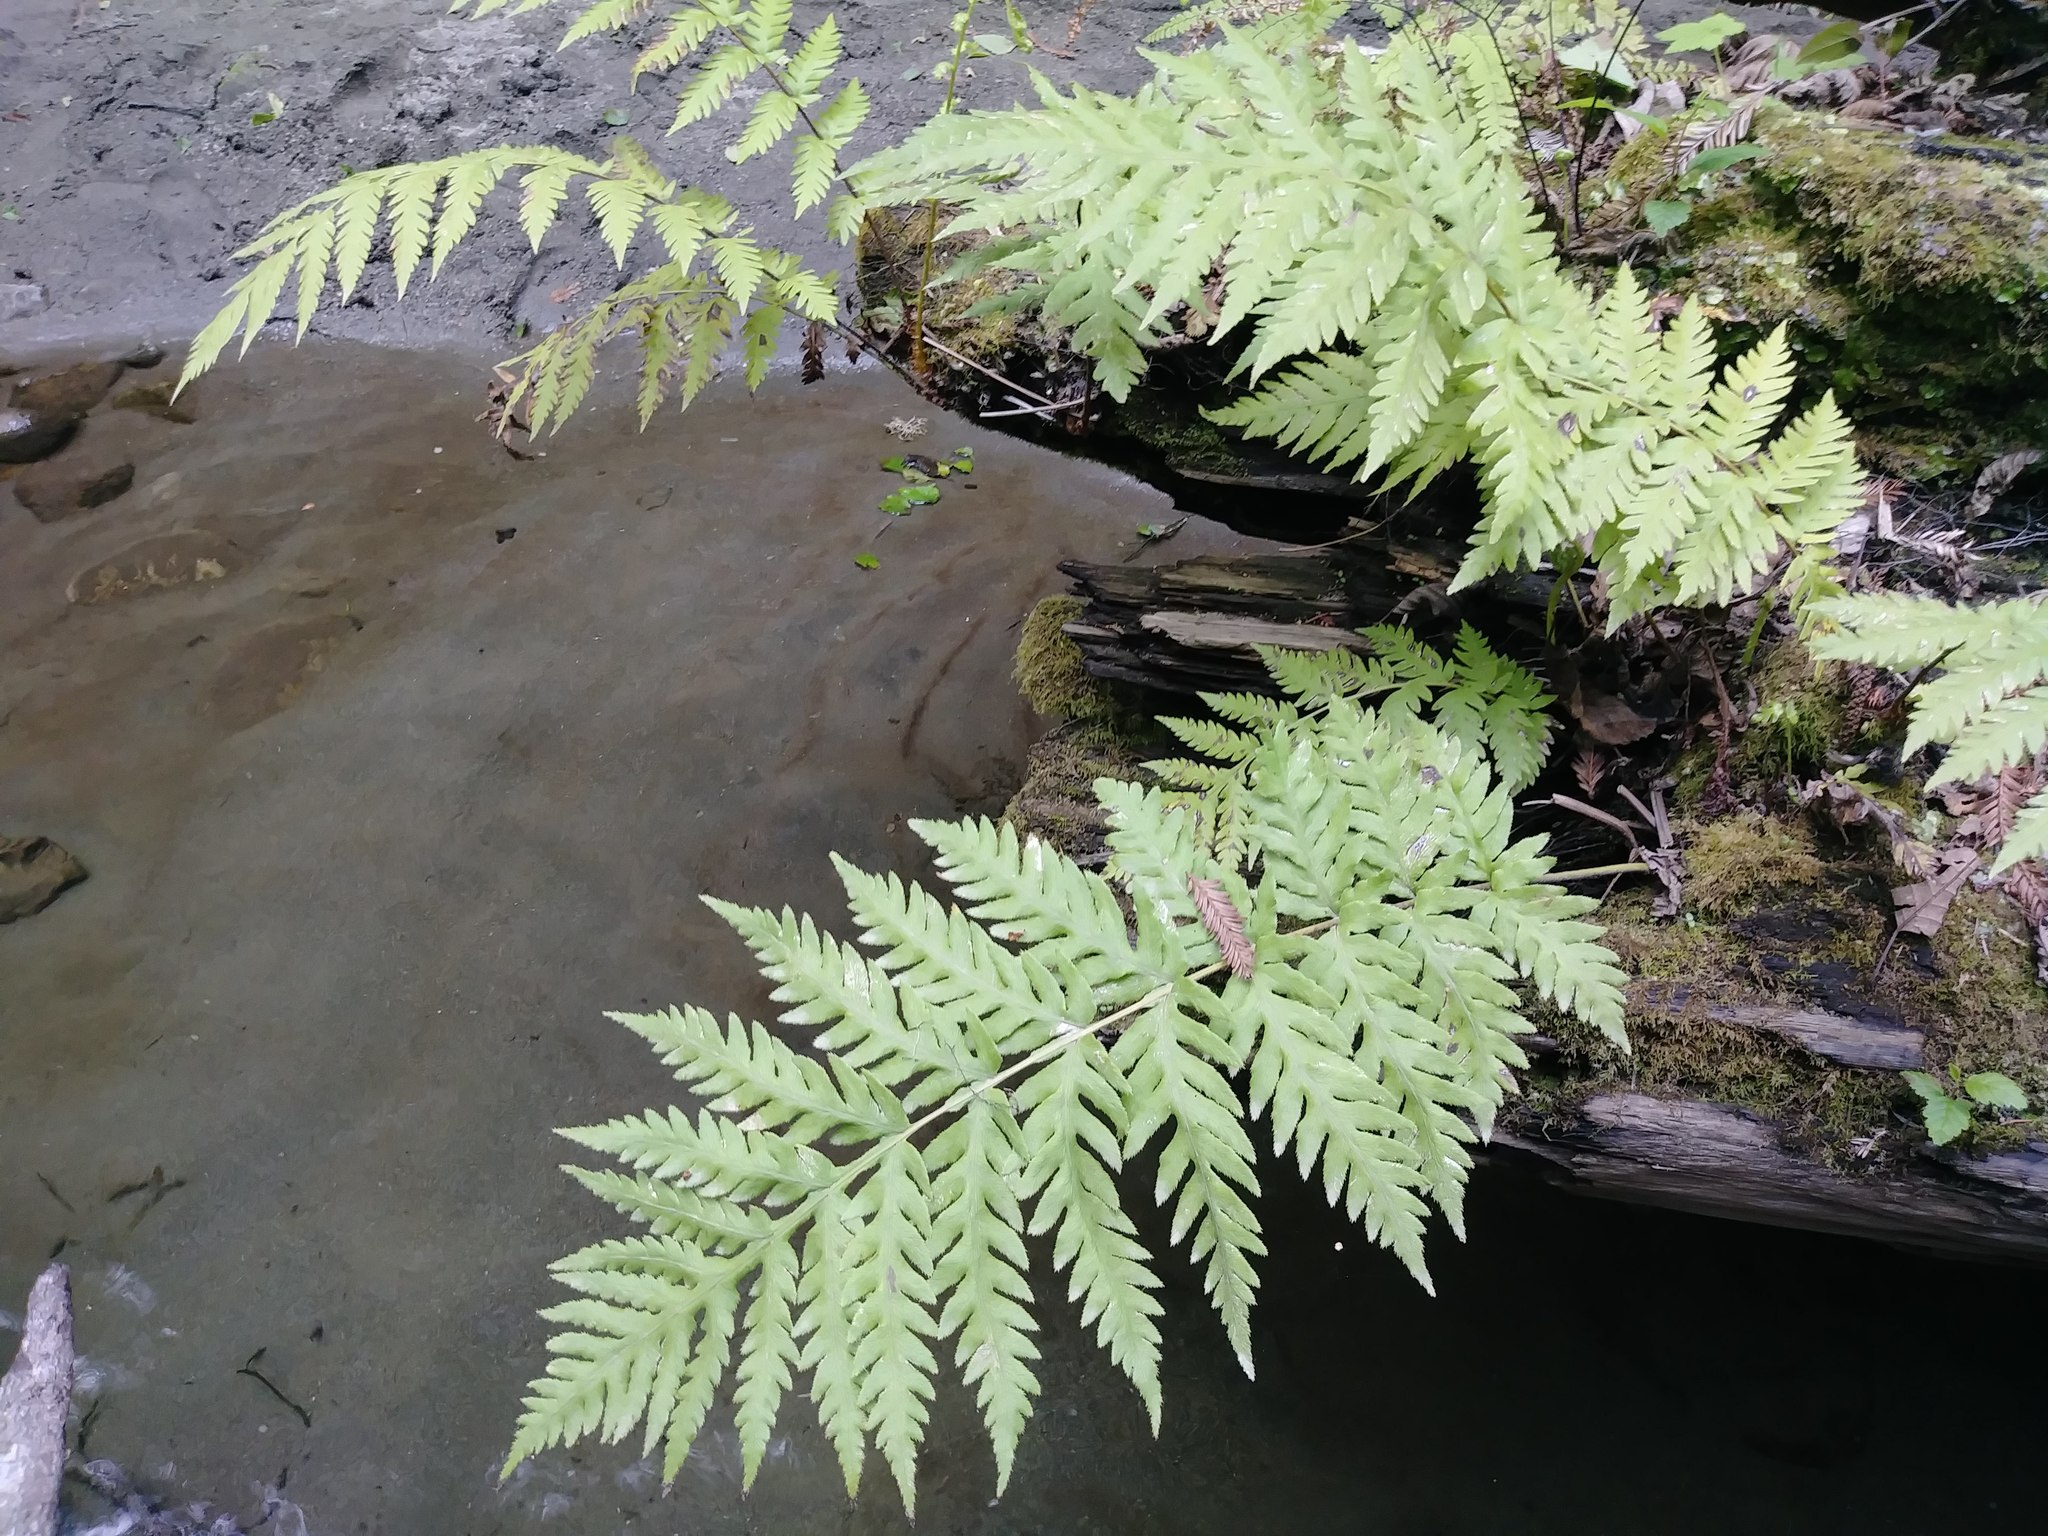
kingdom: Plantae
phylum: Tracheophyta
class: Polypodiopsida
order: Polypodiales
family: Blechnaceae
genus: Woodwardia
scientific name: Woodwardia fimbriata
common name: Giant chain fern
